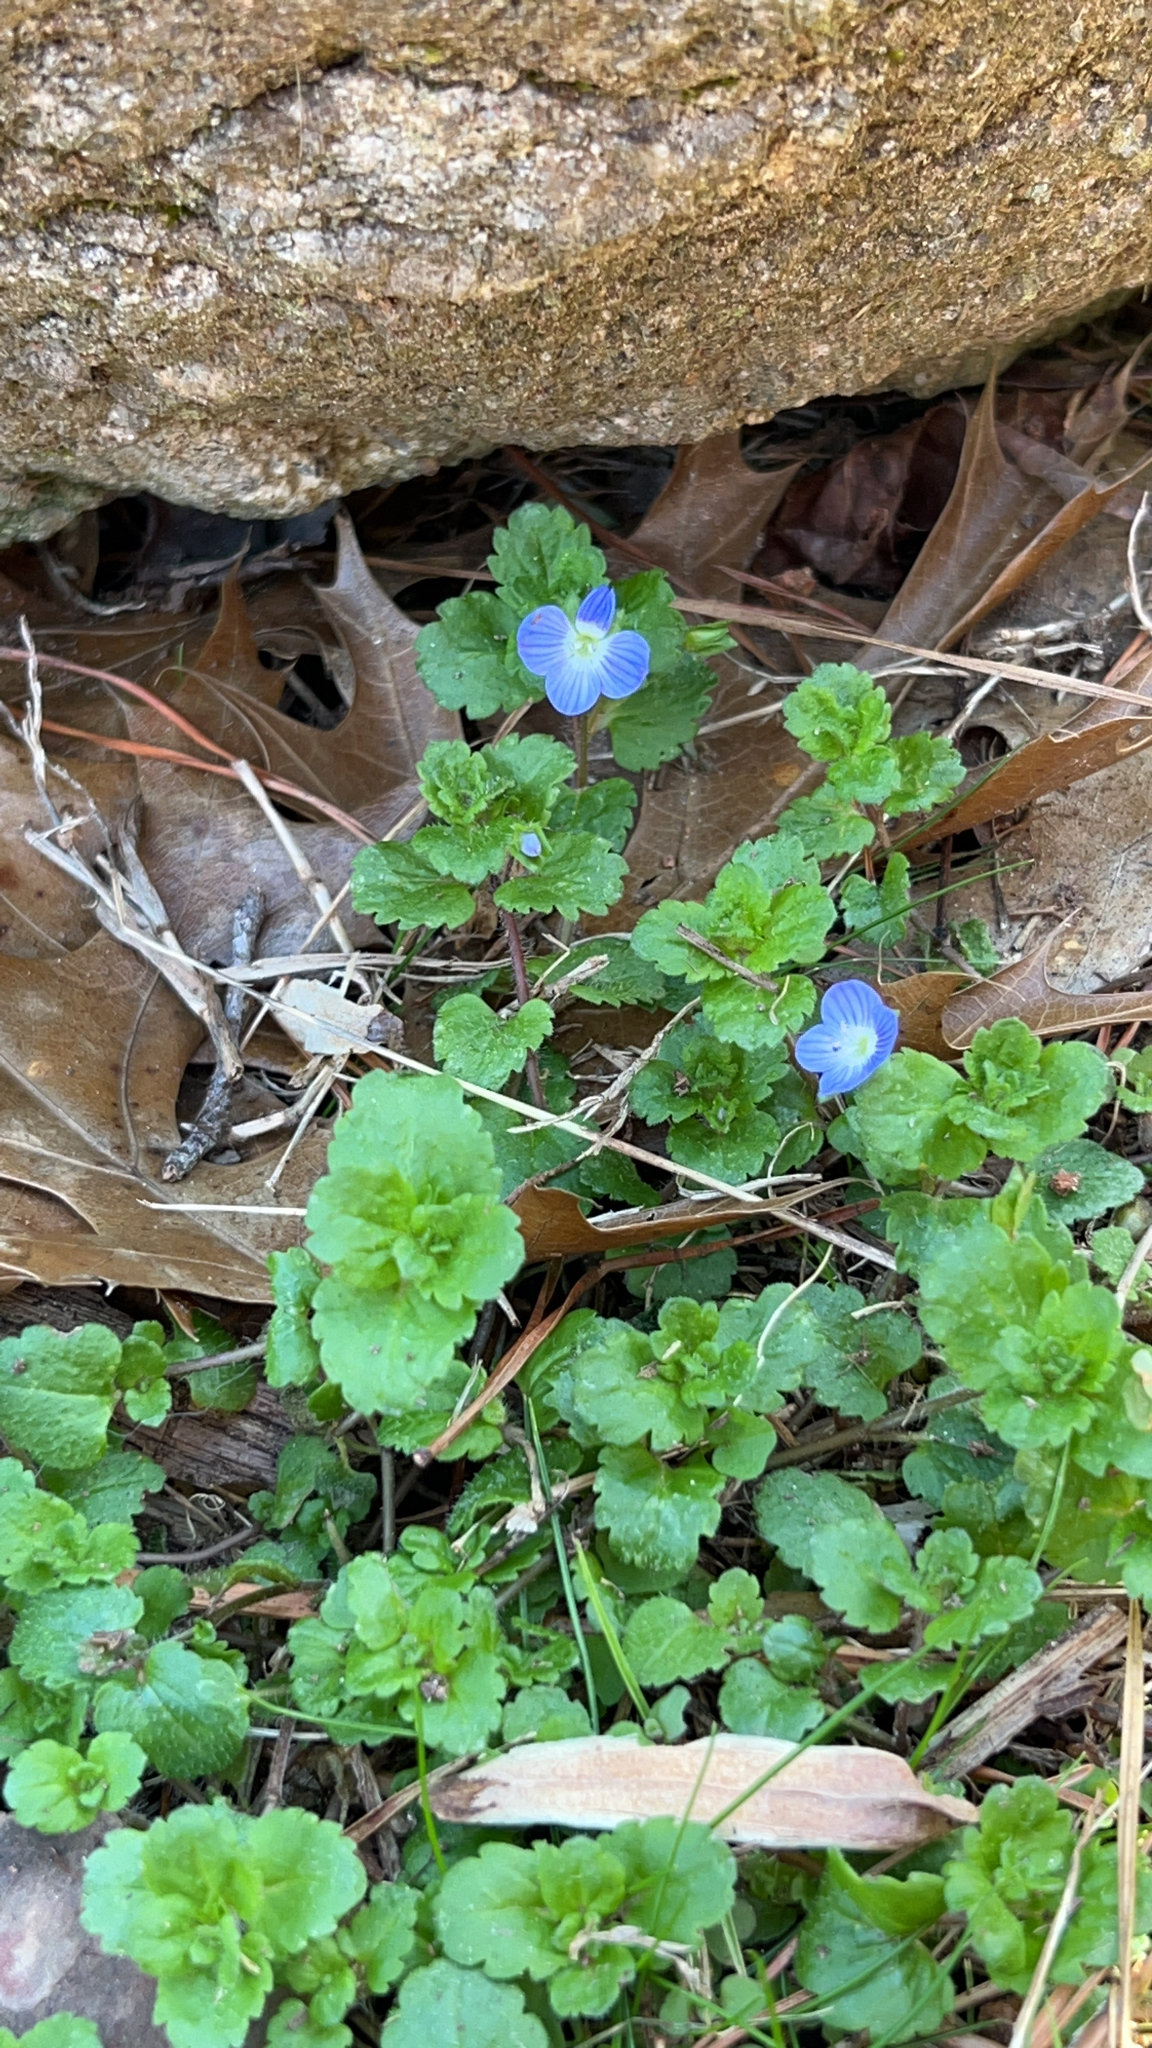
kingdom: Plantae
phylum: Tracheophyta
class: Magnoliopsida
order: Lamiales
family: Plantaginaceae
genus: Veronica
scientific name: Veronica persica
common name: Common field-speedwell
